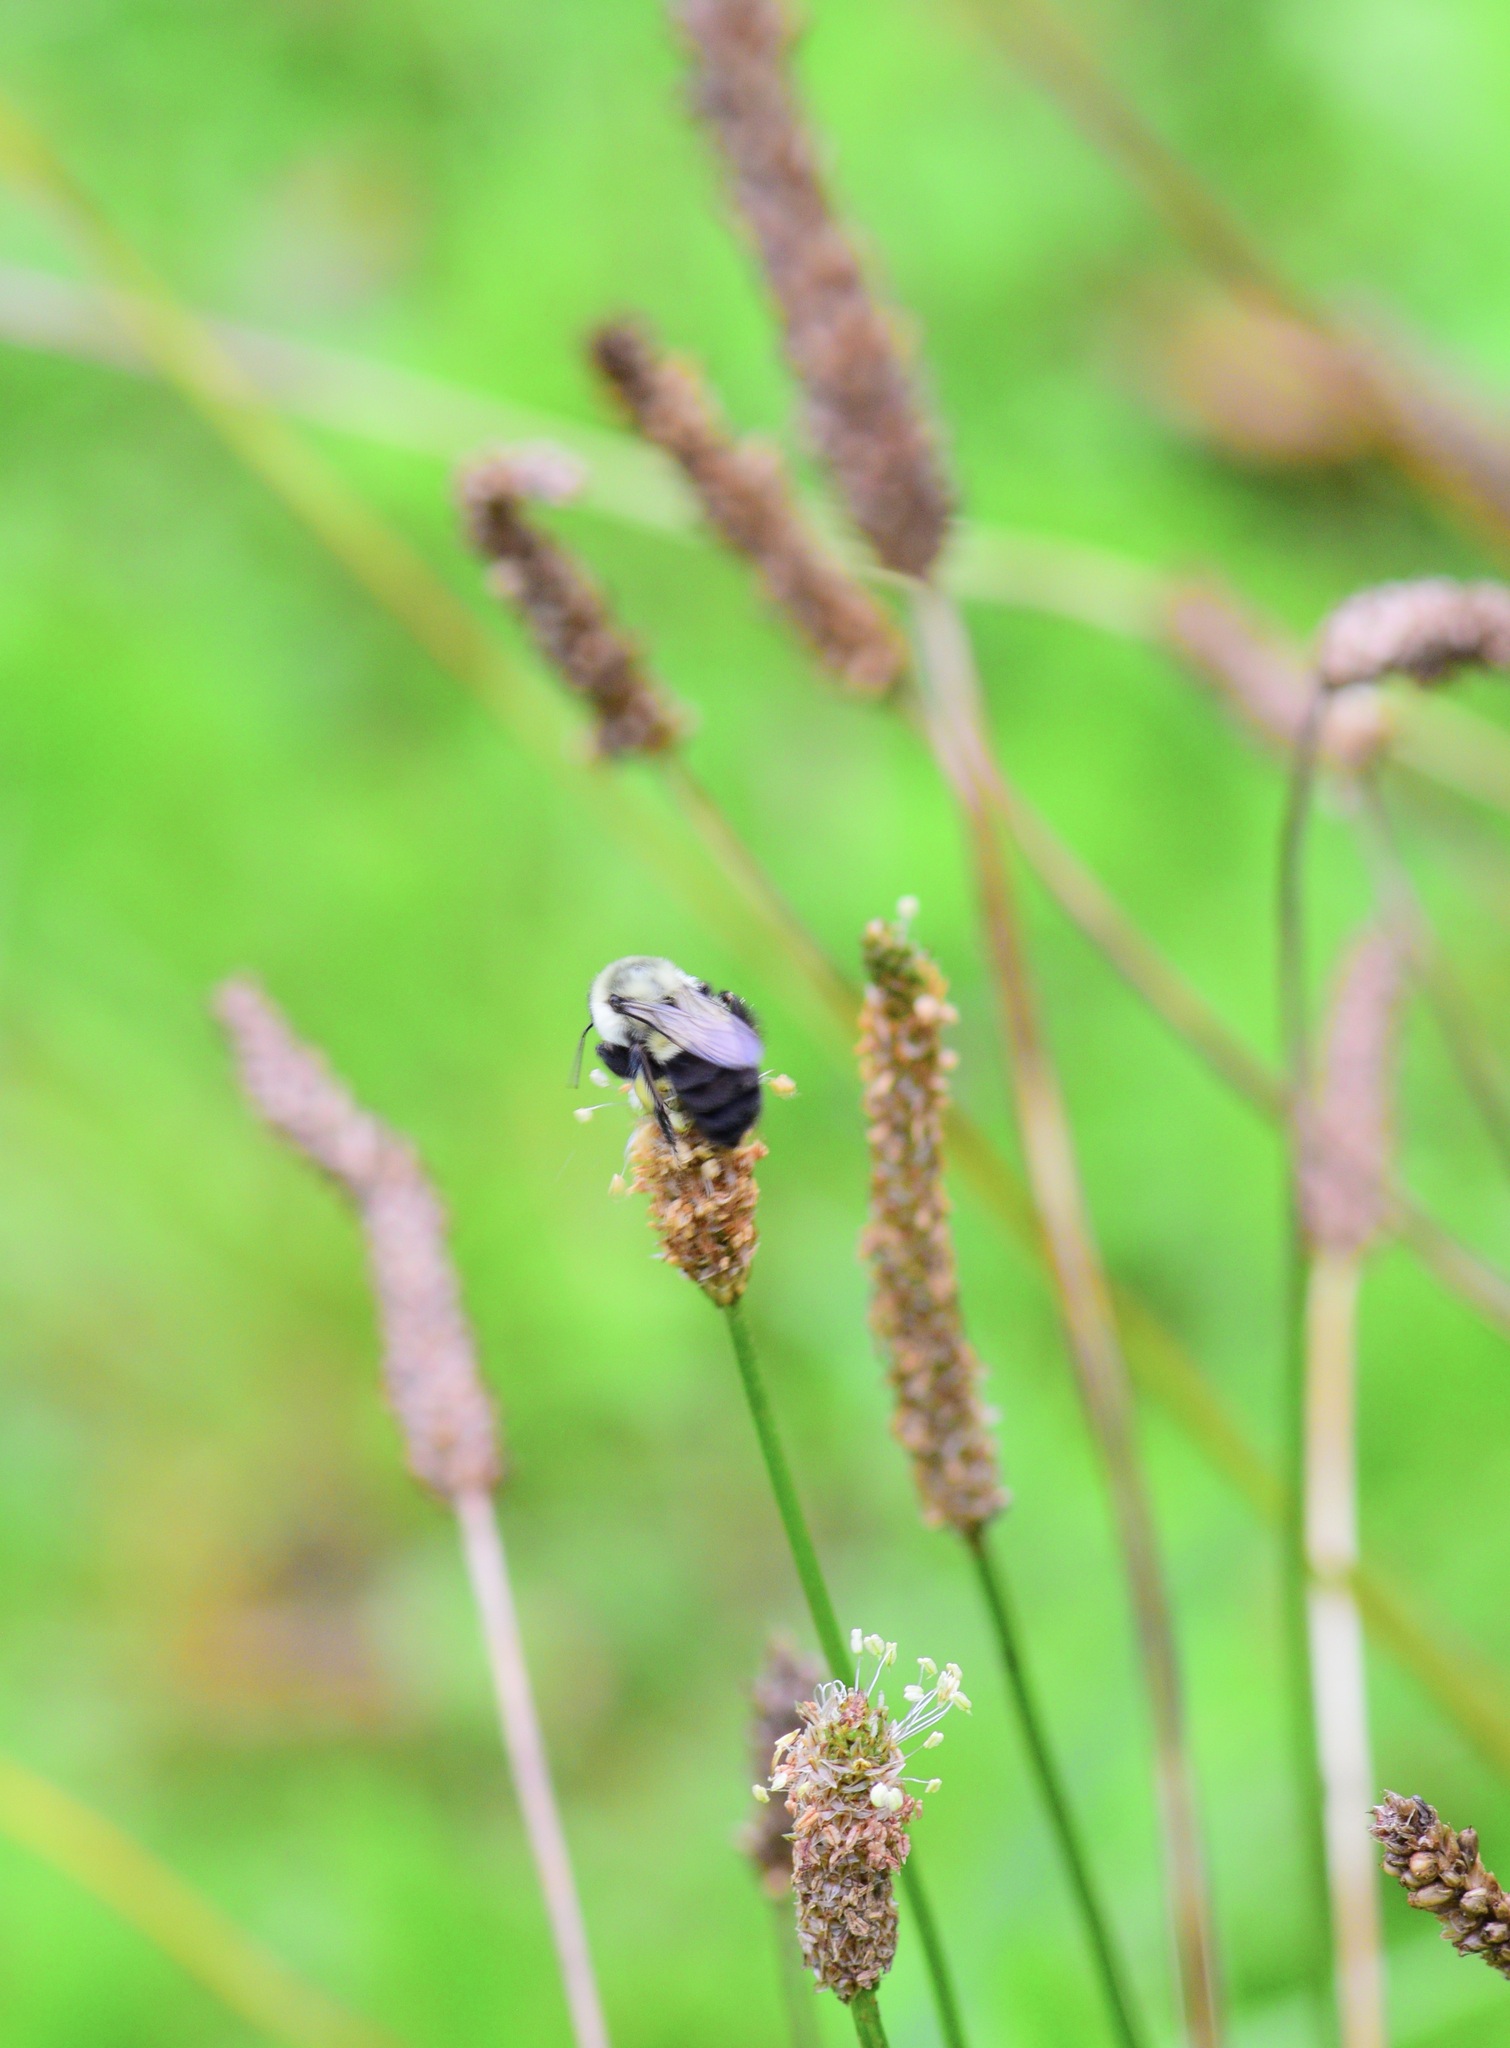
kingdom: Animalia
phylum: Arthropoda
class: Insecta
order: Hymenoptera
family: Apidae
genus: Bombus
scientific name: Bombus impatiens
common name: Common eastern bumble bee
